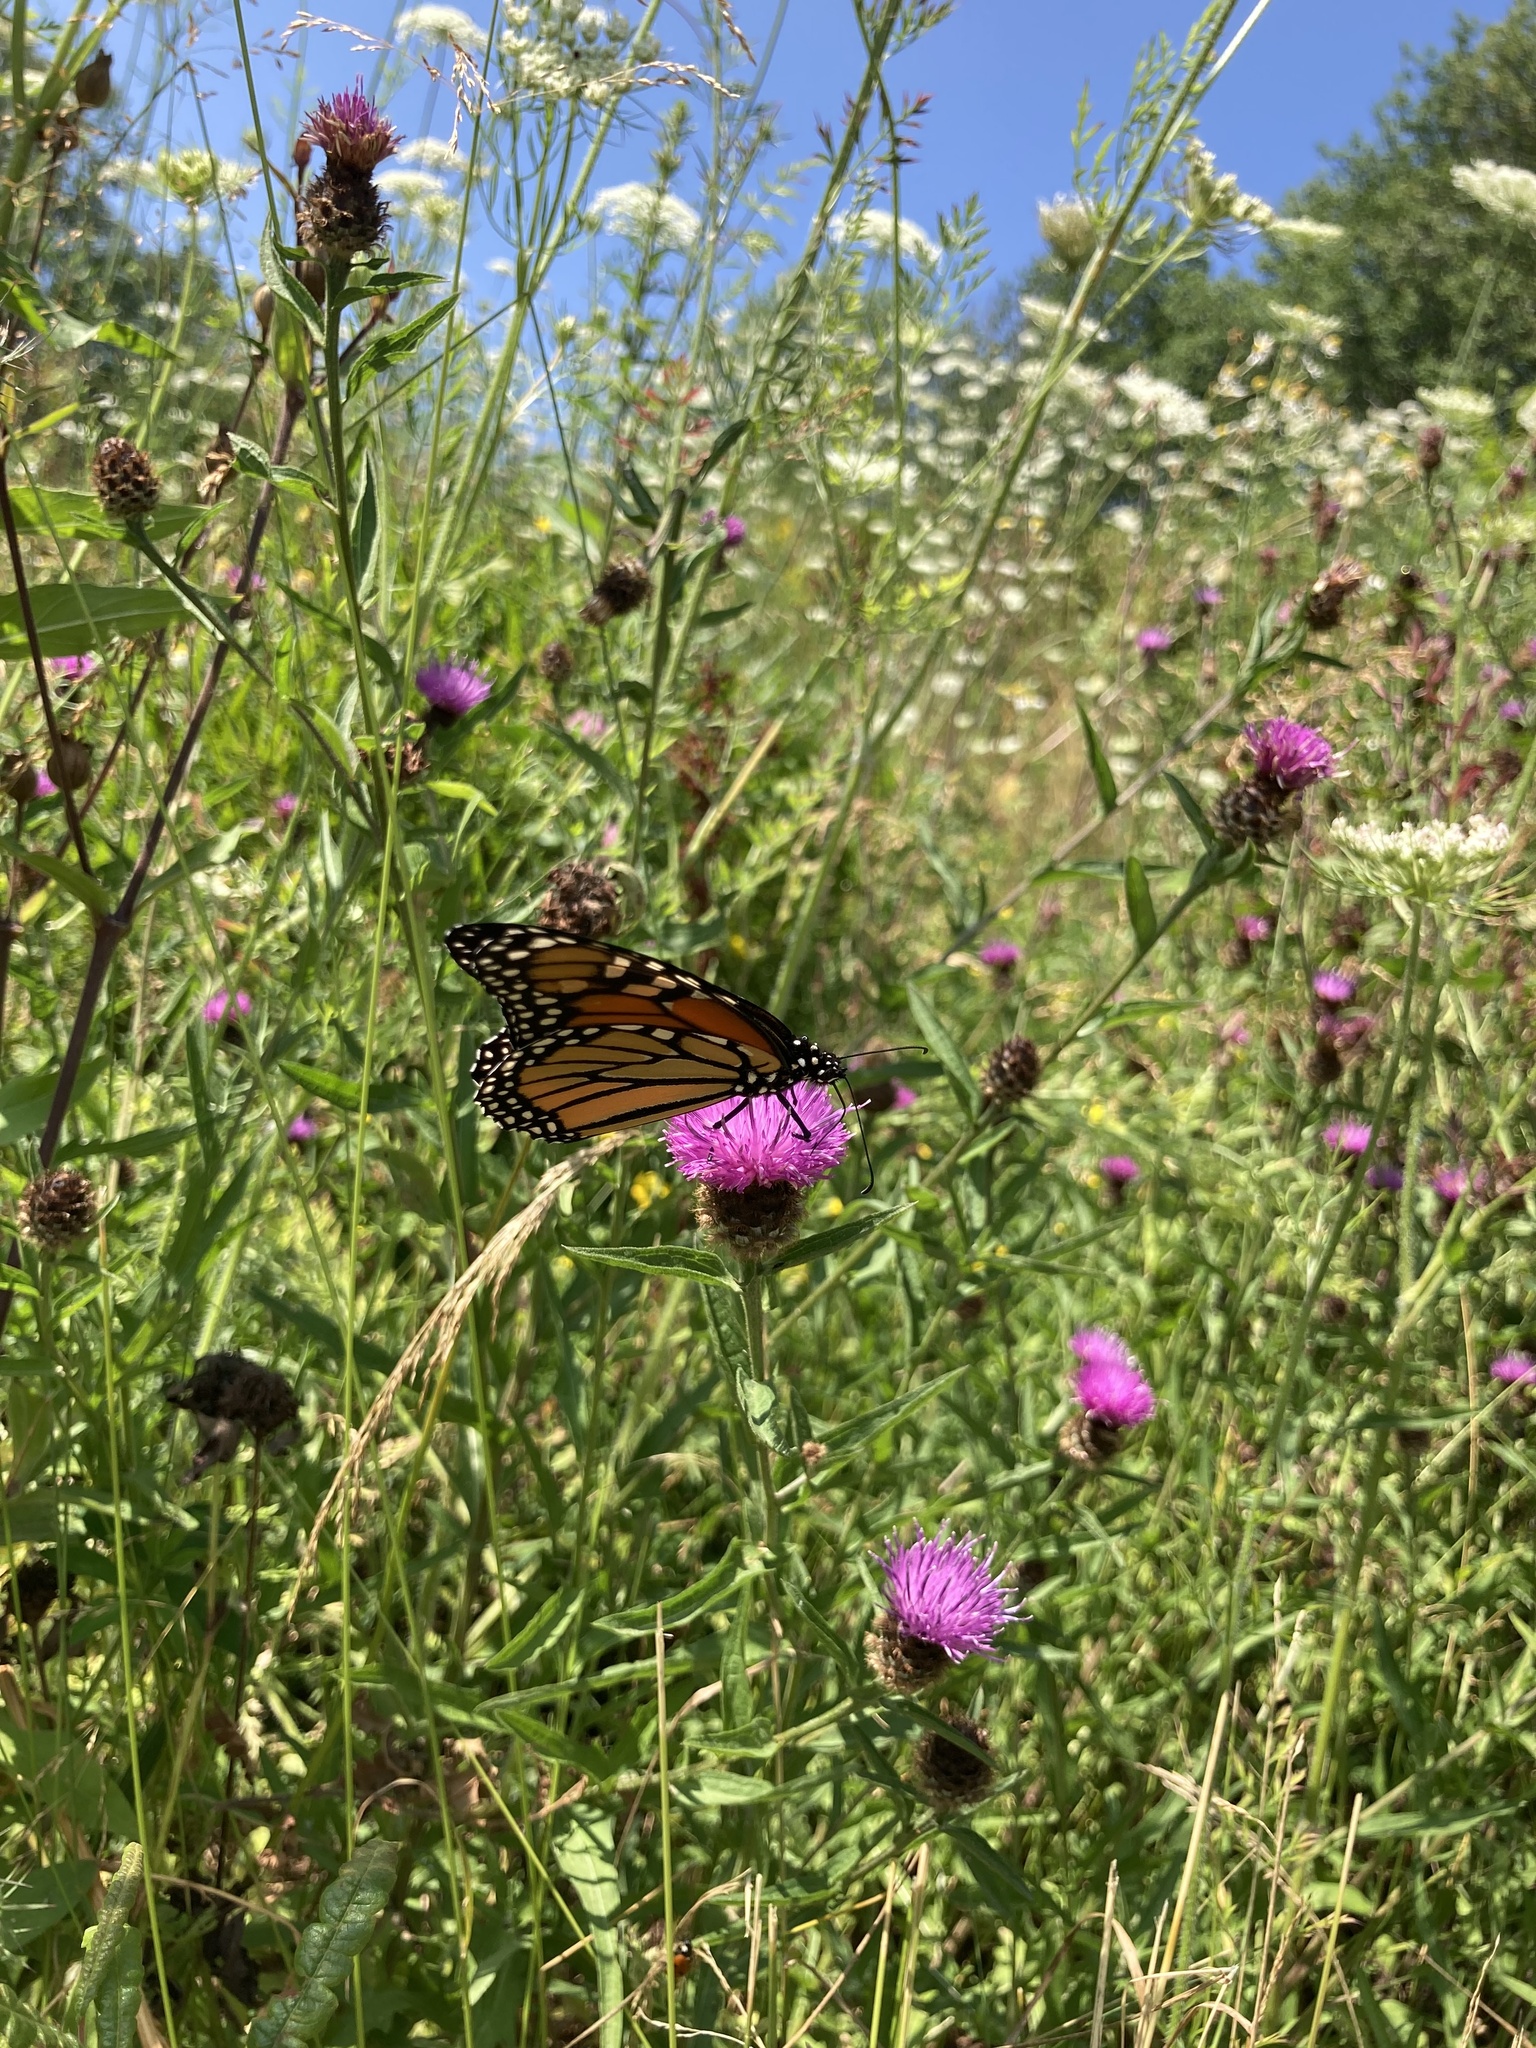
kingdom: Animalia
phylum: Arthropoda
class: Insecta
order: Lepidoptera
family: Nymphalidae
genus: Danaus
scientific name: Danaus plexippus
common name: Monarch
